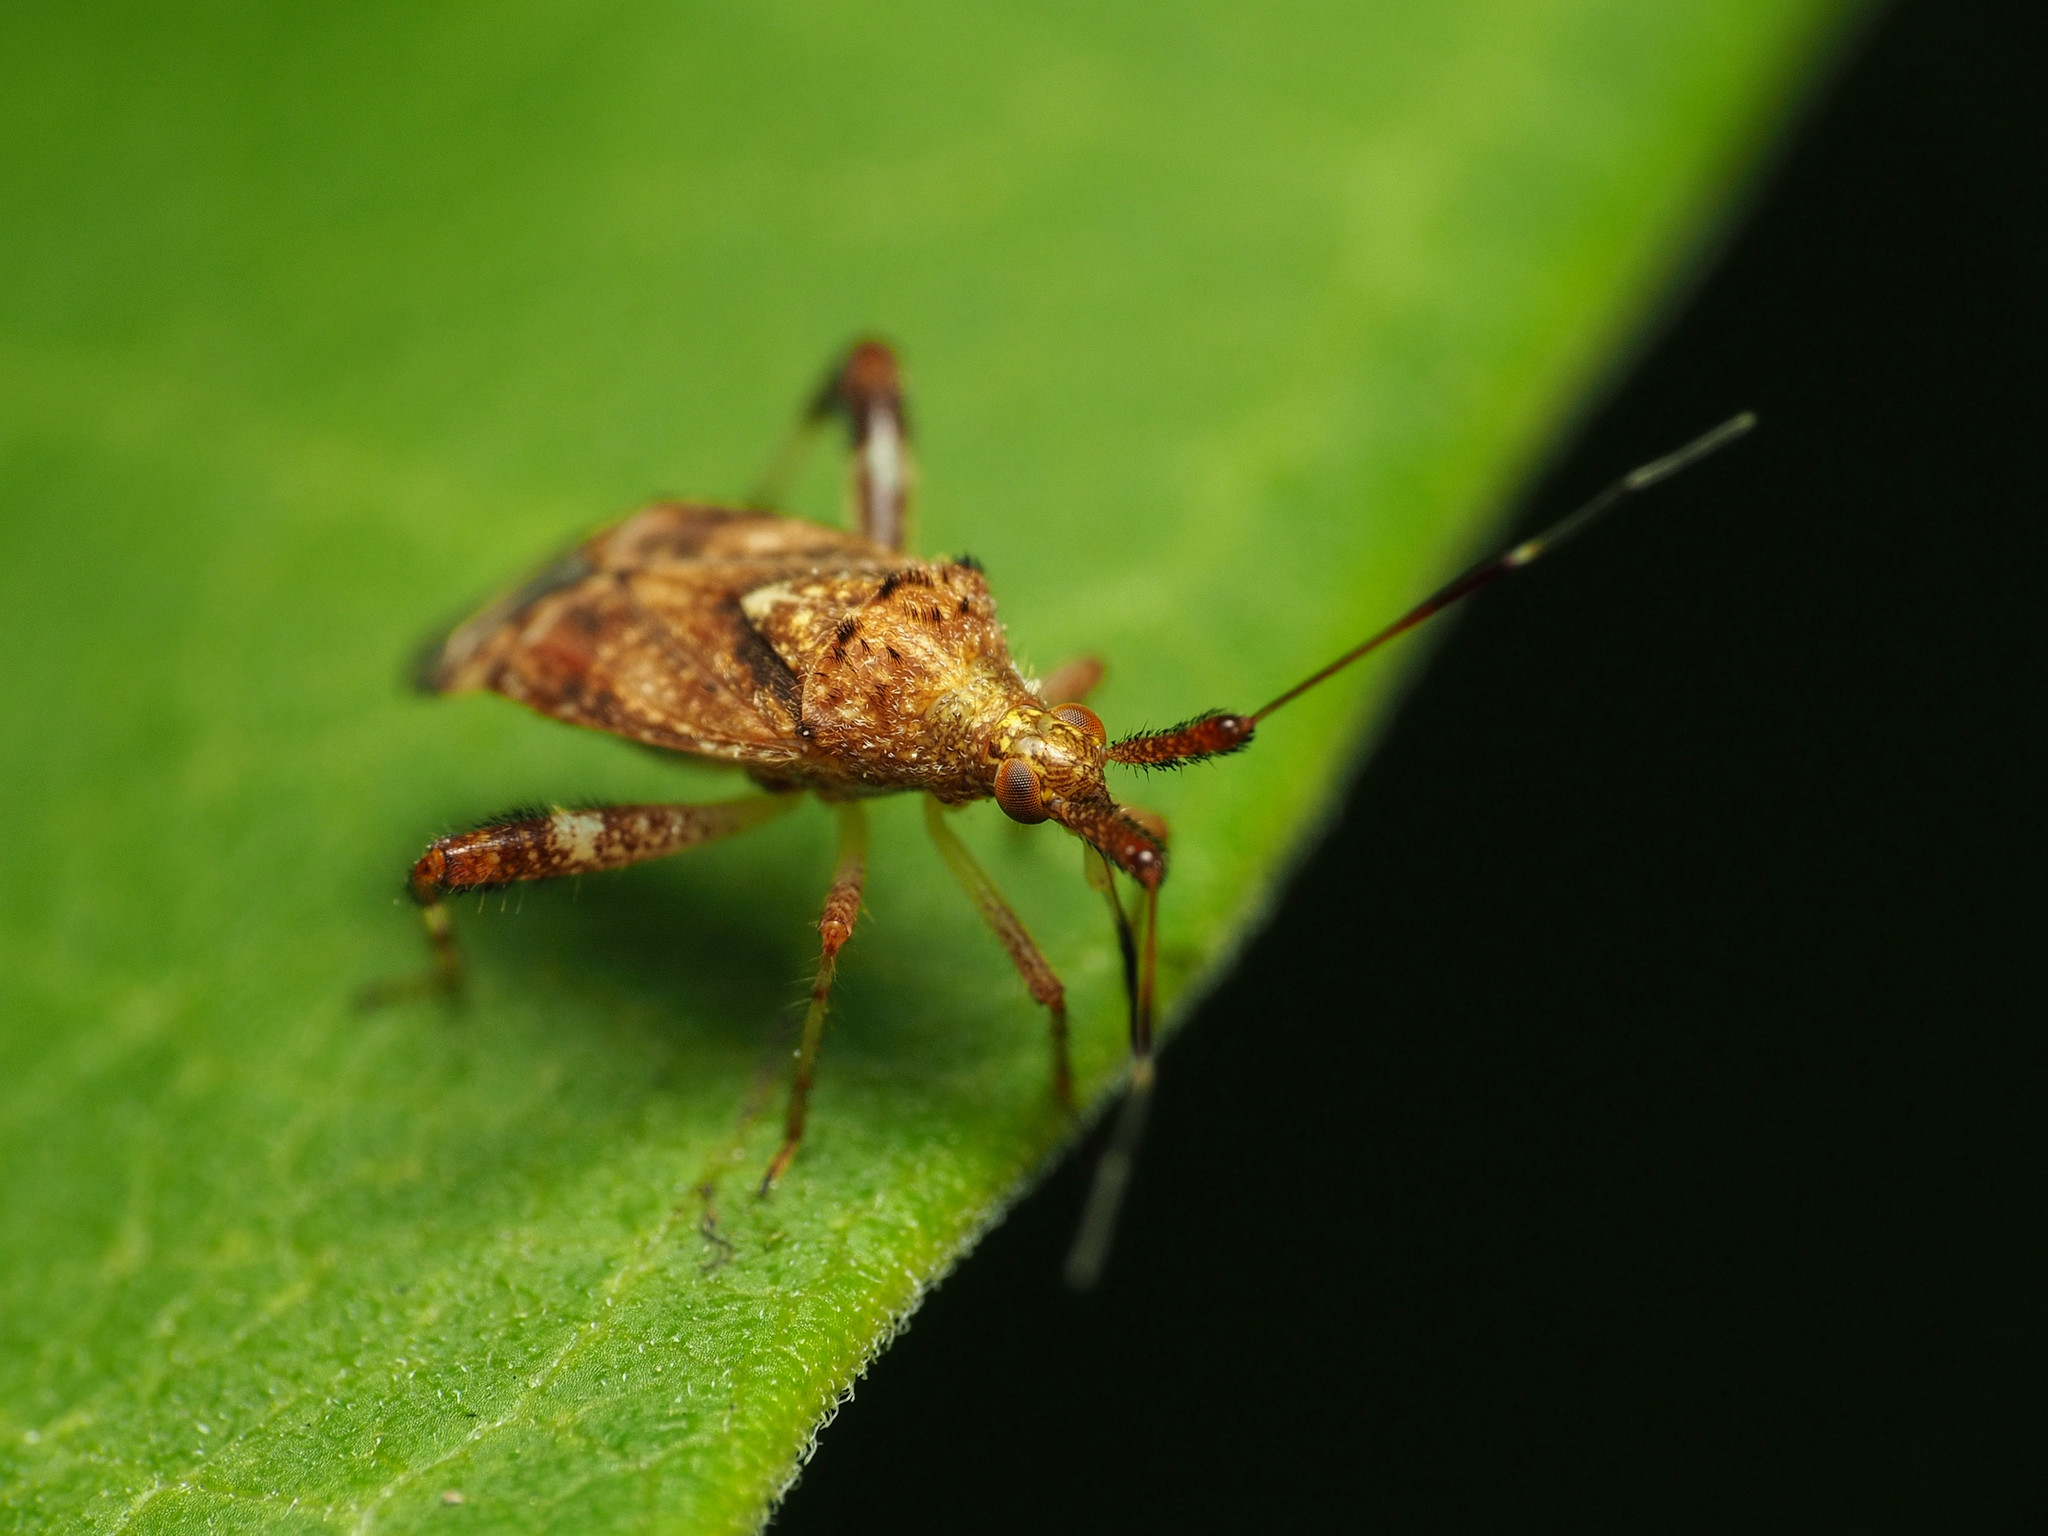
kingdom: Animalia
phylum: Arthropoda
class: Insecta
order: Hemiptera
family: Miridae
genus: Neurocolpus
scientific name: Neurocolpus nubilus
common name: Clouded plant bug
